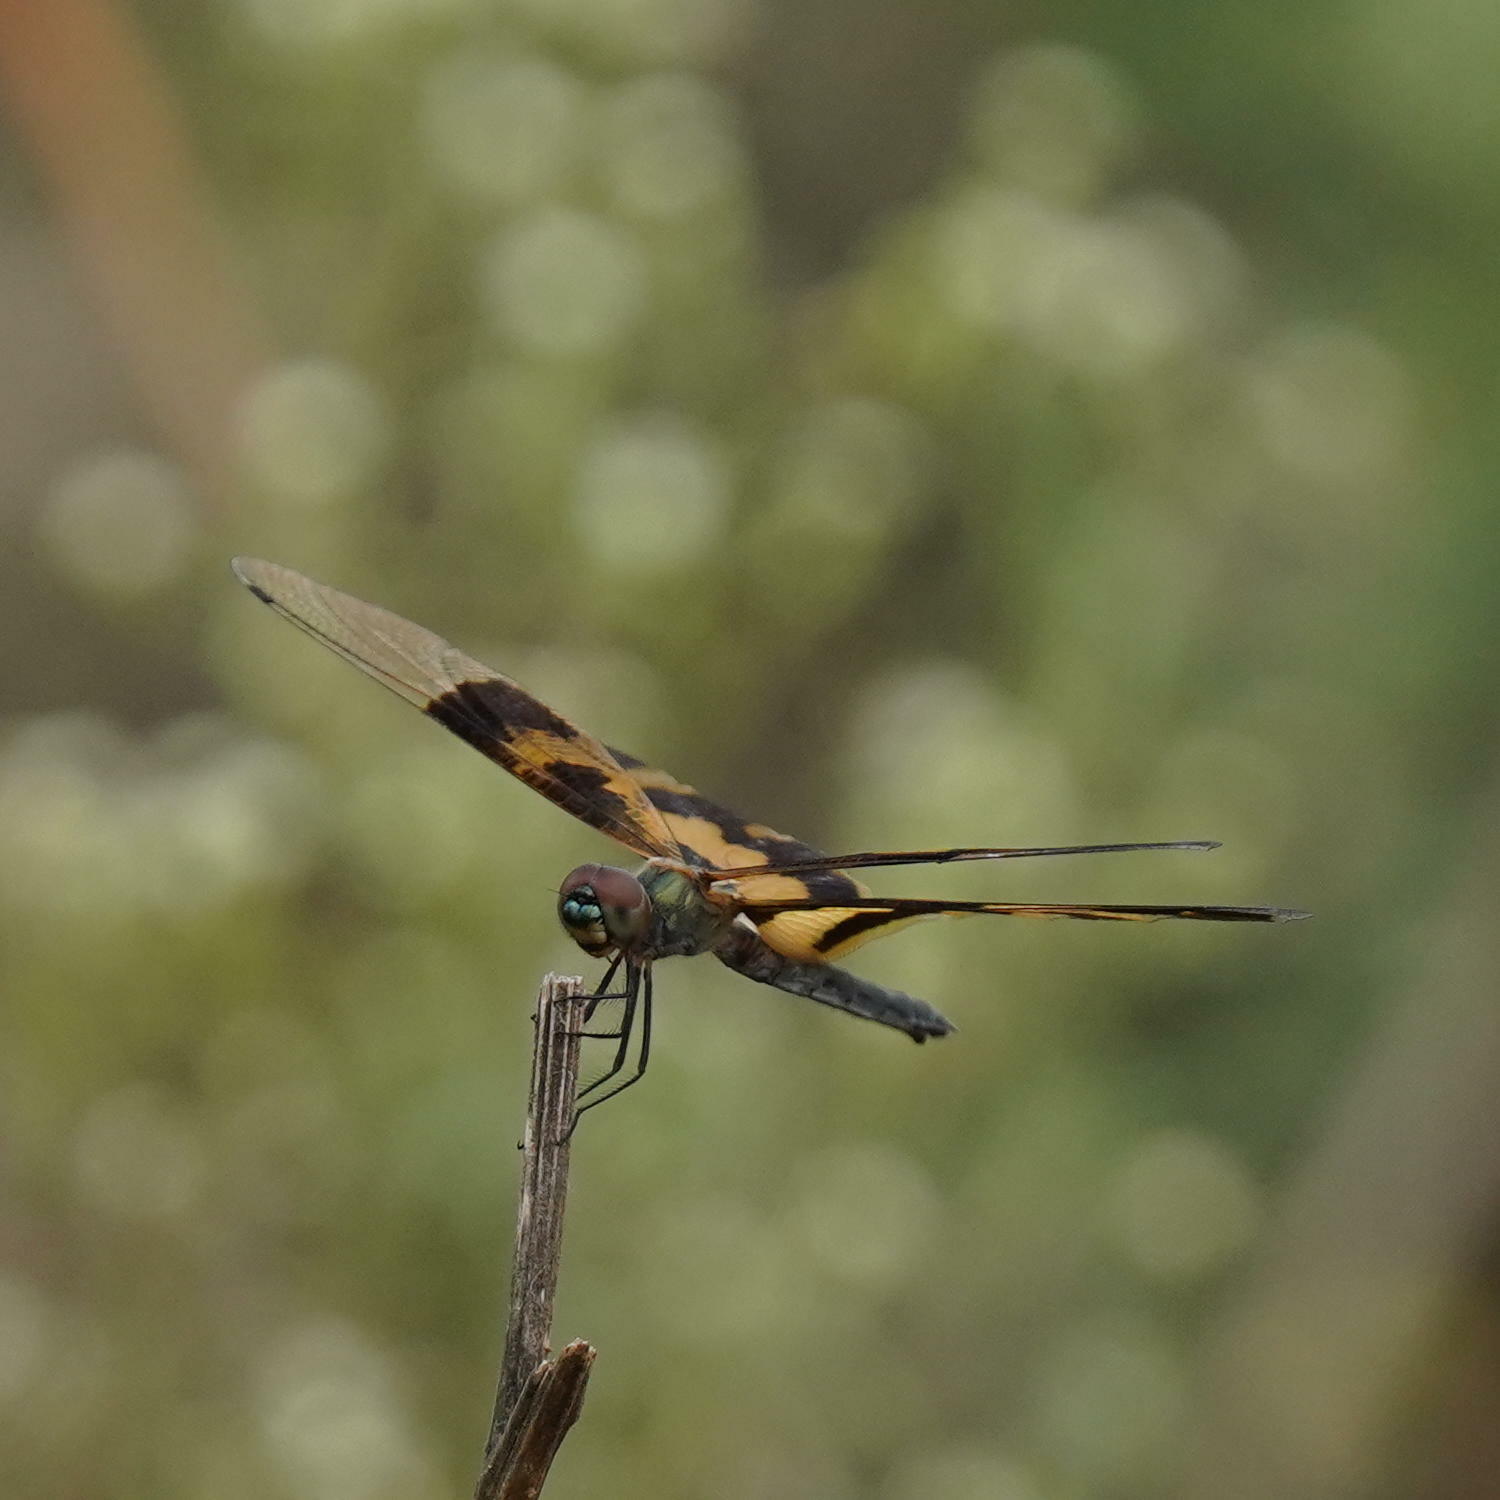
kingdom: Animalia
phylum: Arthropoda
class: Insecta
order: Odonata
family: Libellulidae
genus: Rhyothemis
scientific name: Rhyothemis variegata
